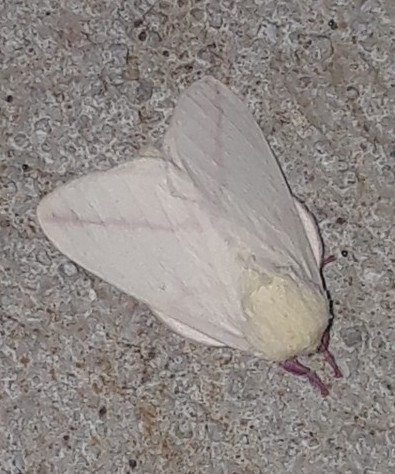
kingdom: Animalia
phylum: Arthropoda
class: Insecta
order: Lepidoptera
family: Saturniidae
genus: Dryocampa
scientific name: Dryocampa rubicunda
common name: Rosy maple moth
